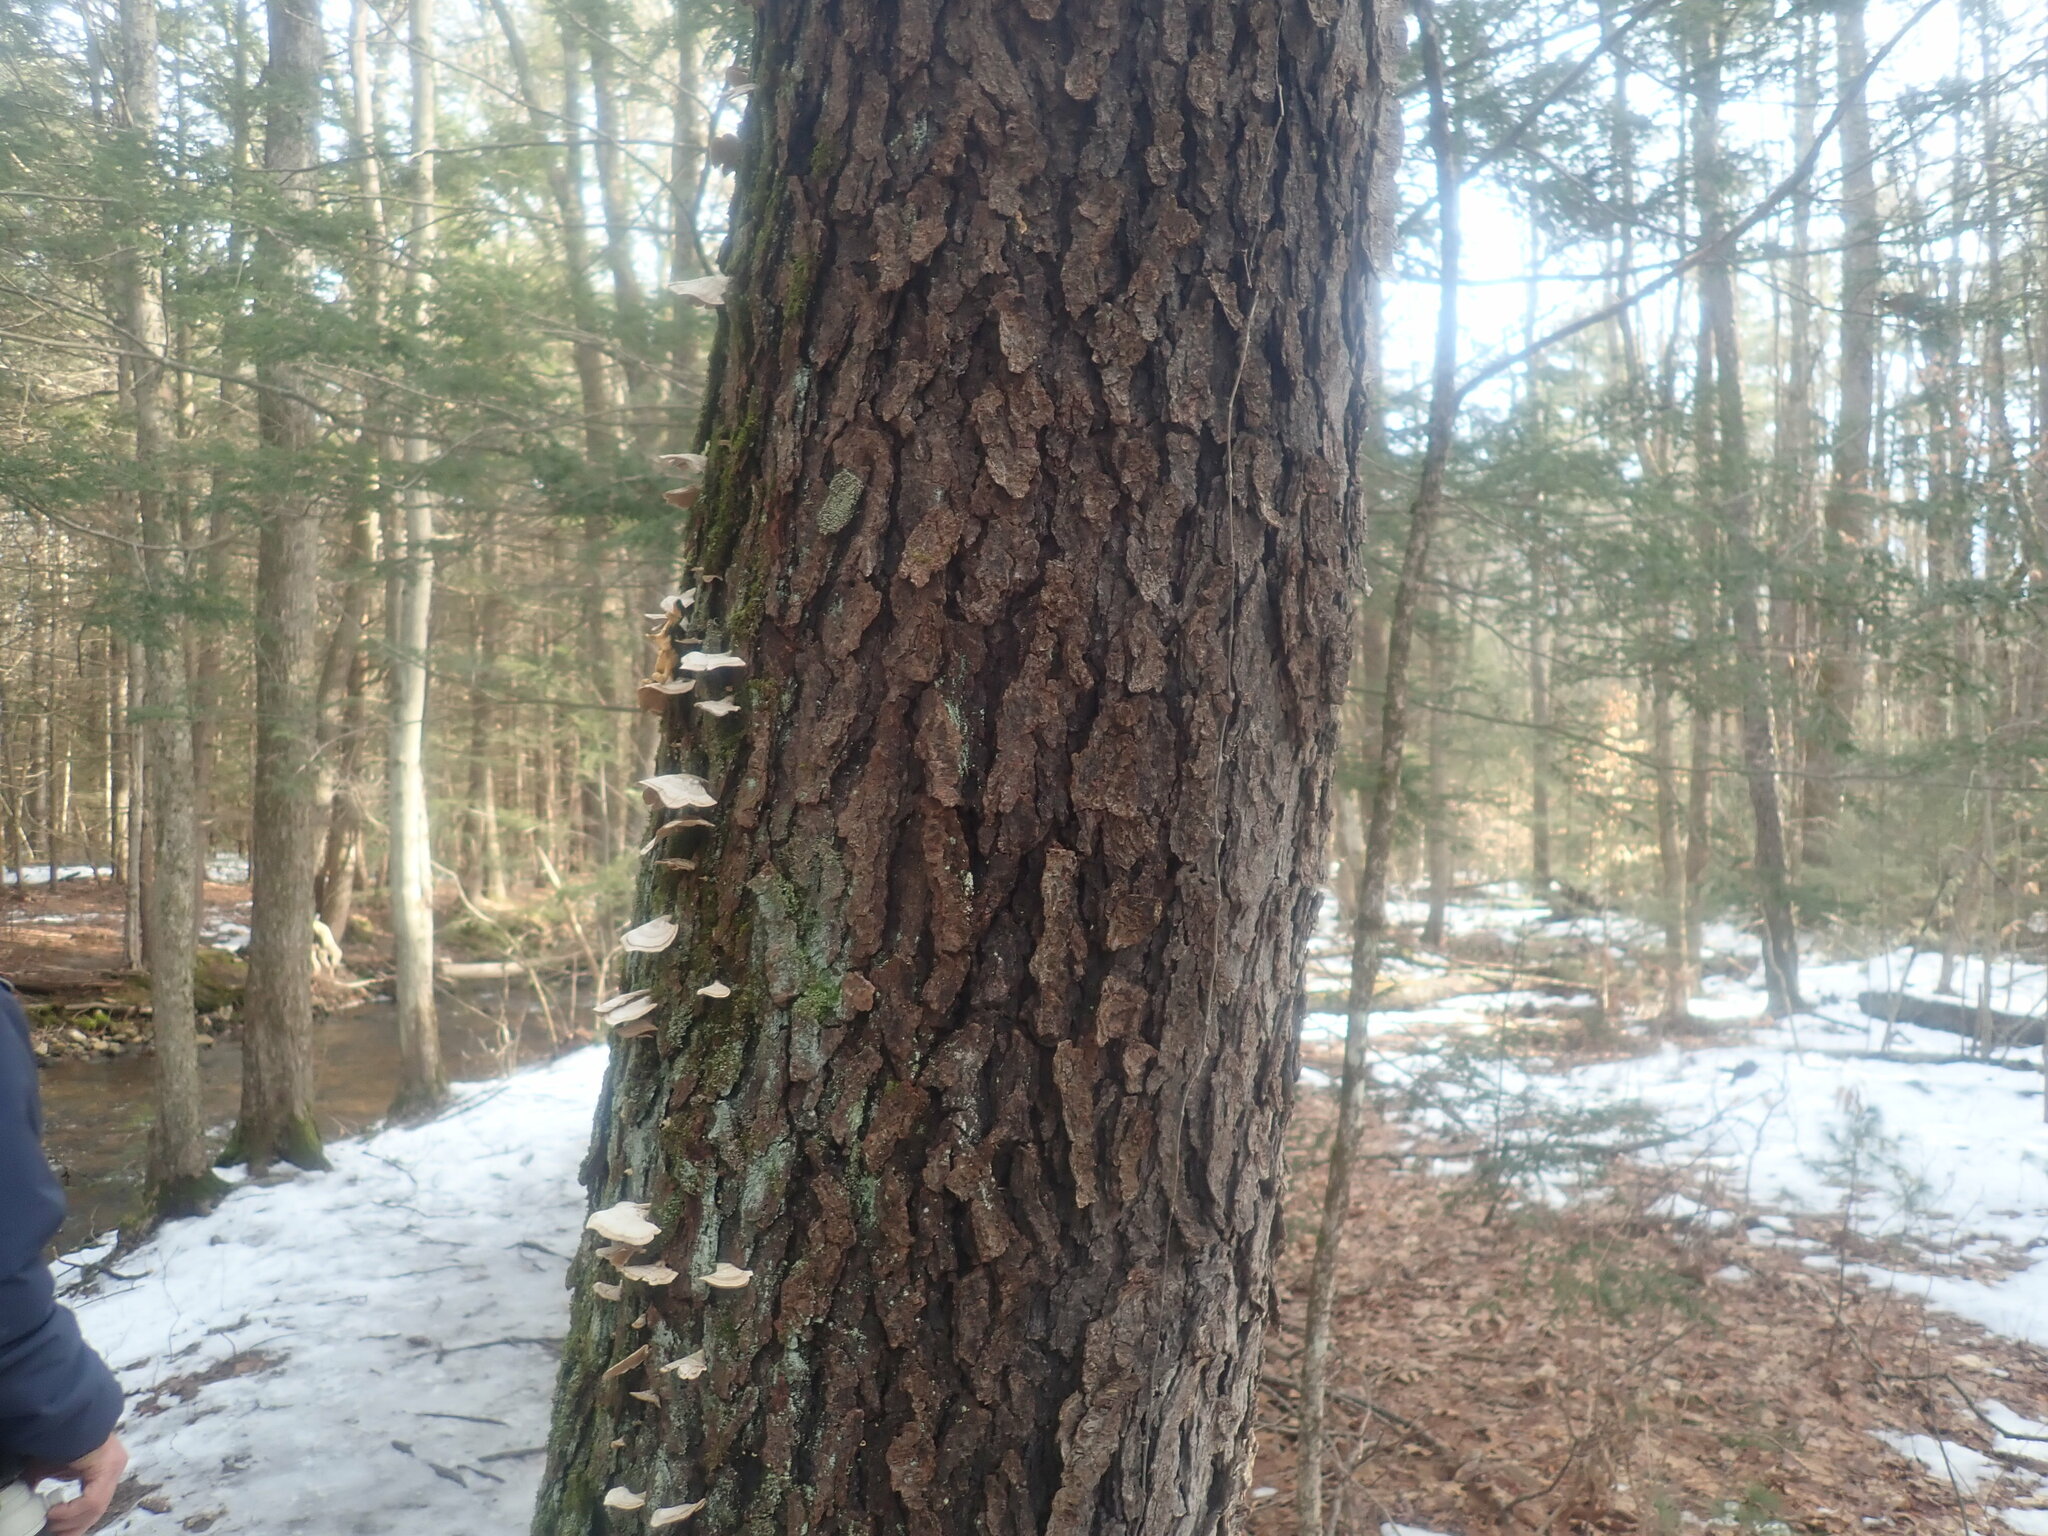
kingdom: Plantae
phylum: Tracheophyta
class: Magnoliopsida
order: Rosales
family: Rosaceae
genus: Prunus
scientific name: Prunus serotina
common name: Black cherry
